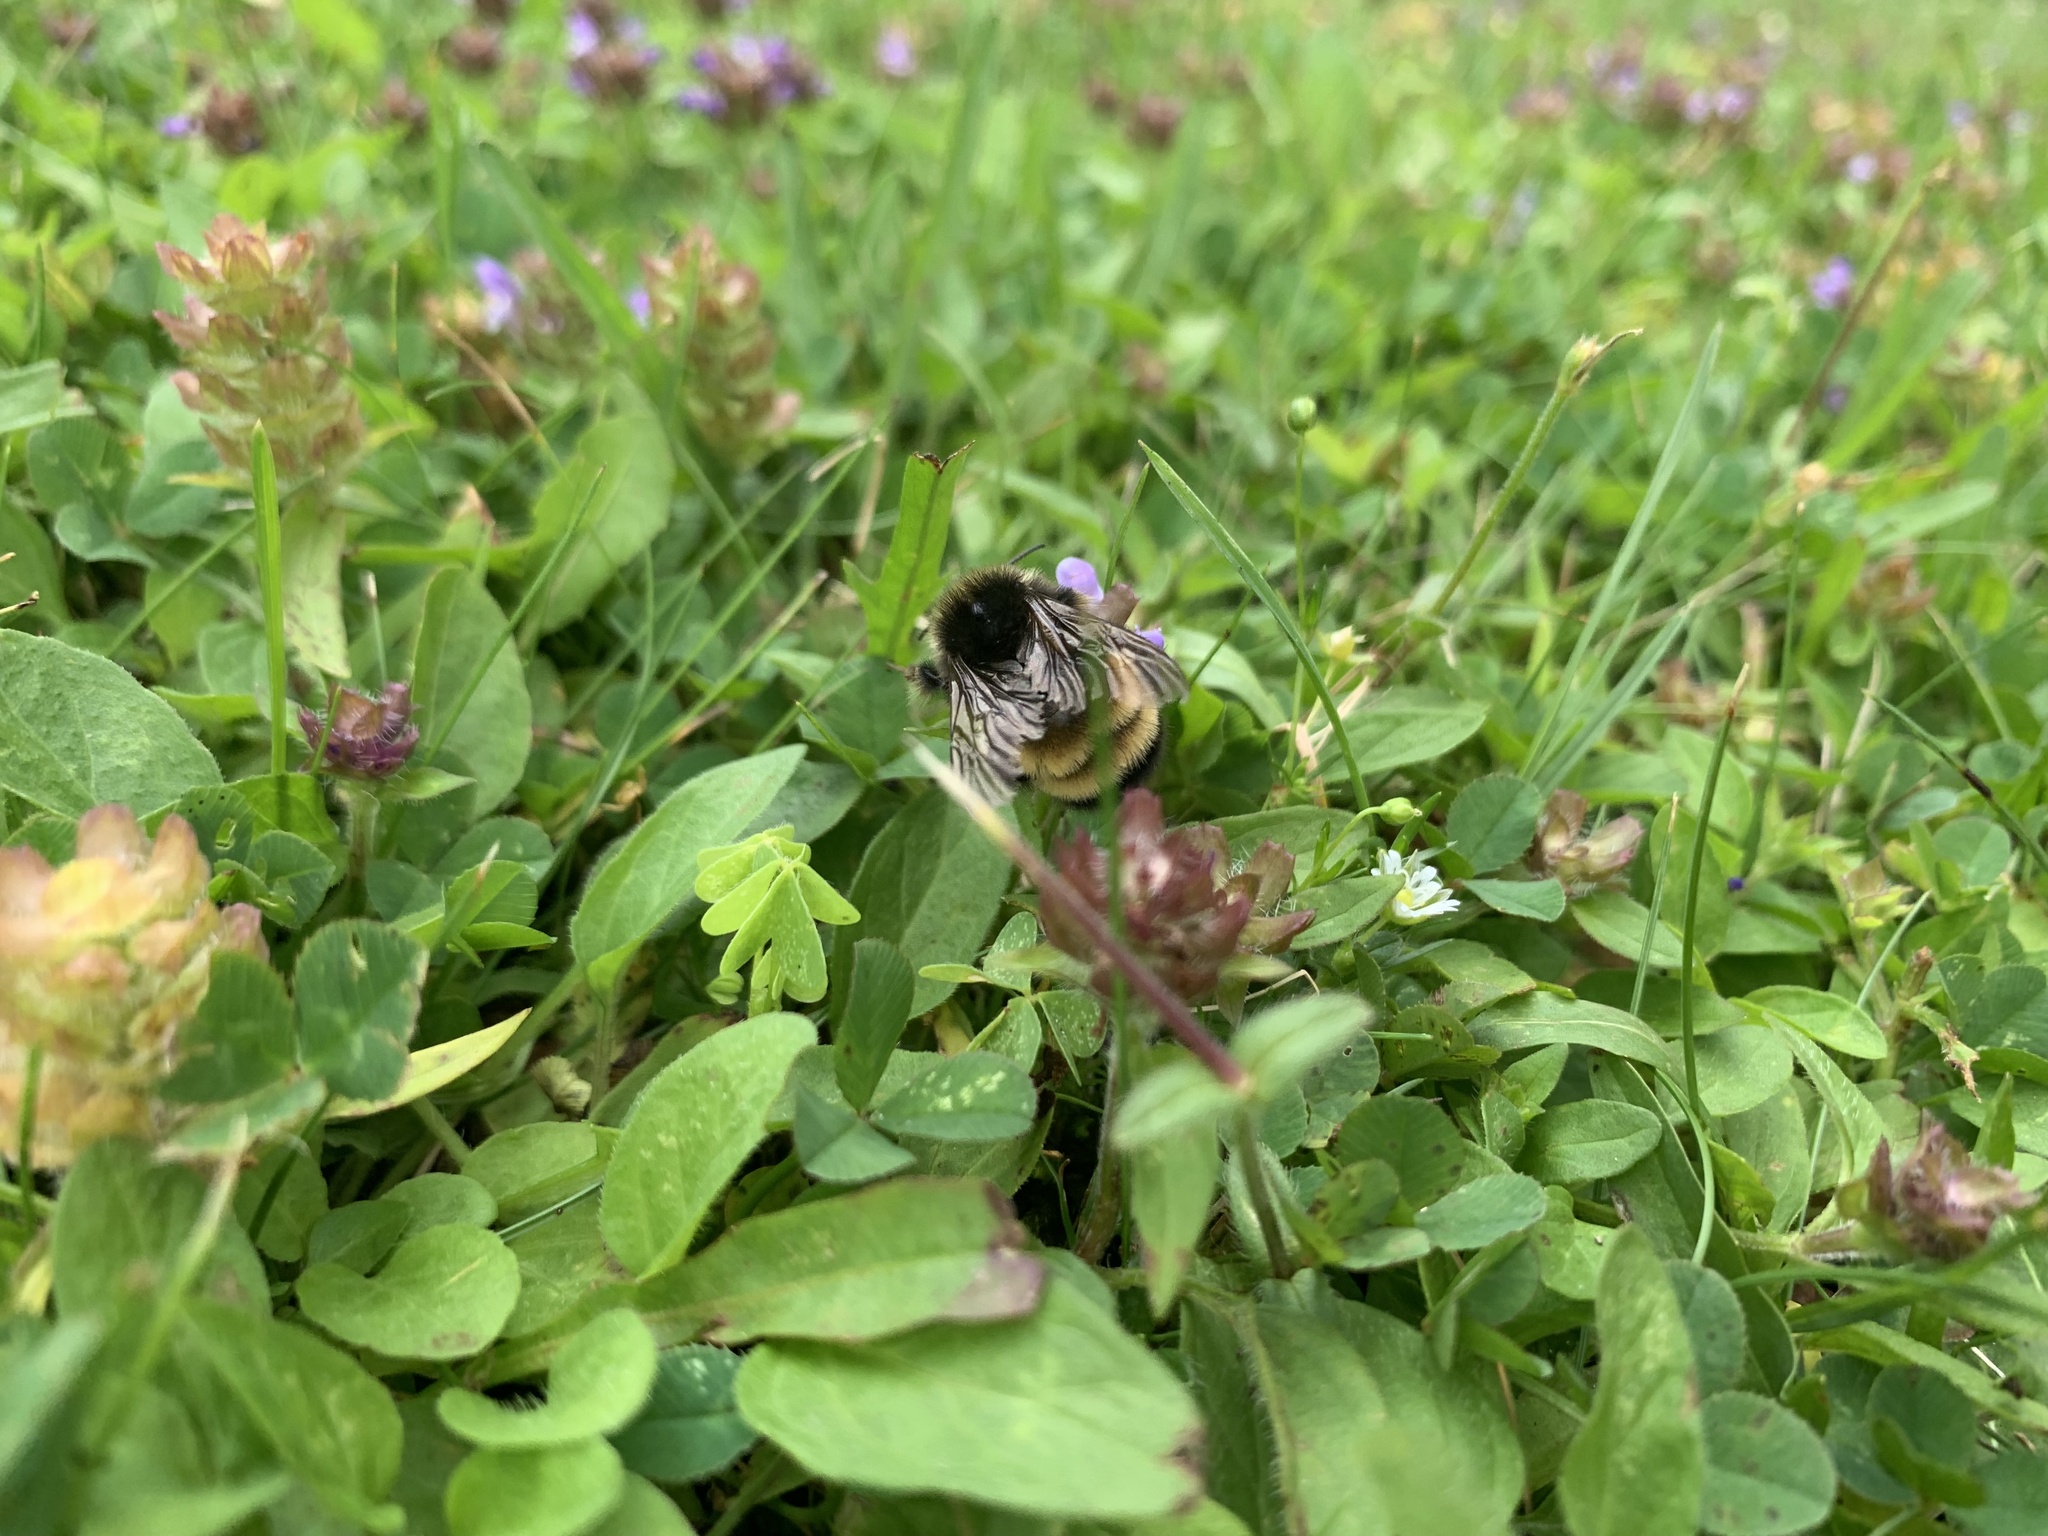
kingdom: Animalia
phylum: Arthropoda
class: Insecta
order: Hymenoptera
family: Apidae
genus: Bombus
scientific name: Bombus terricola
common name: Yellow-banded bumble bee
